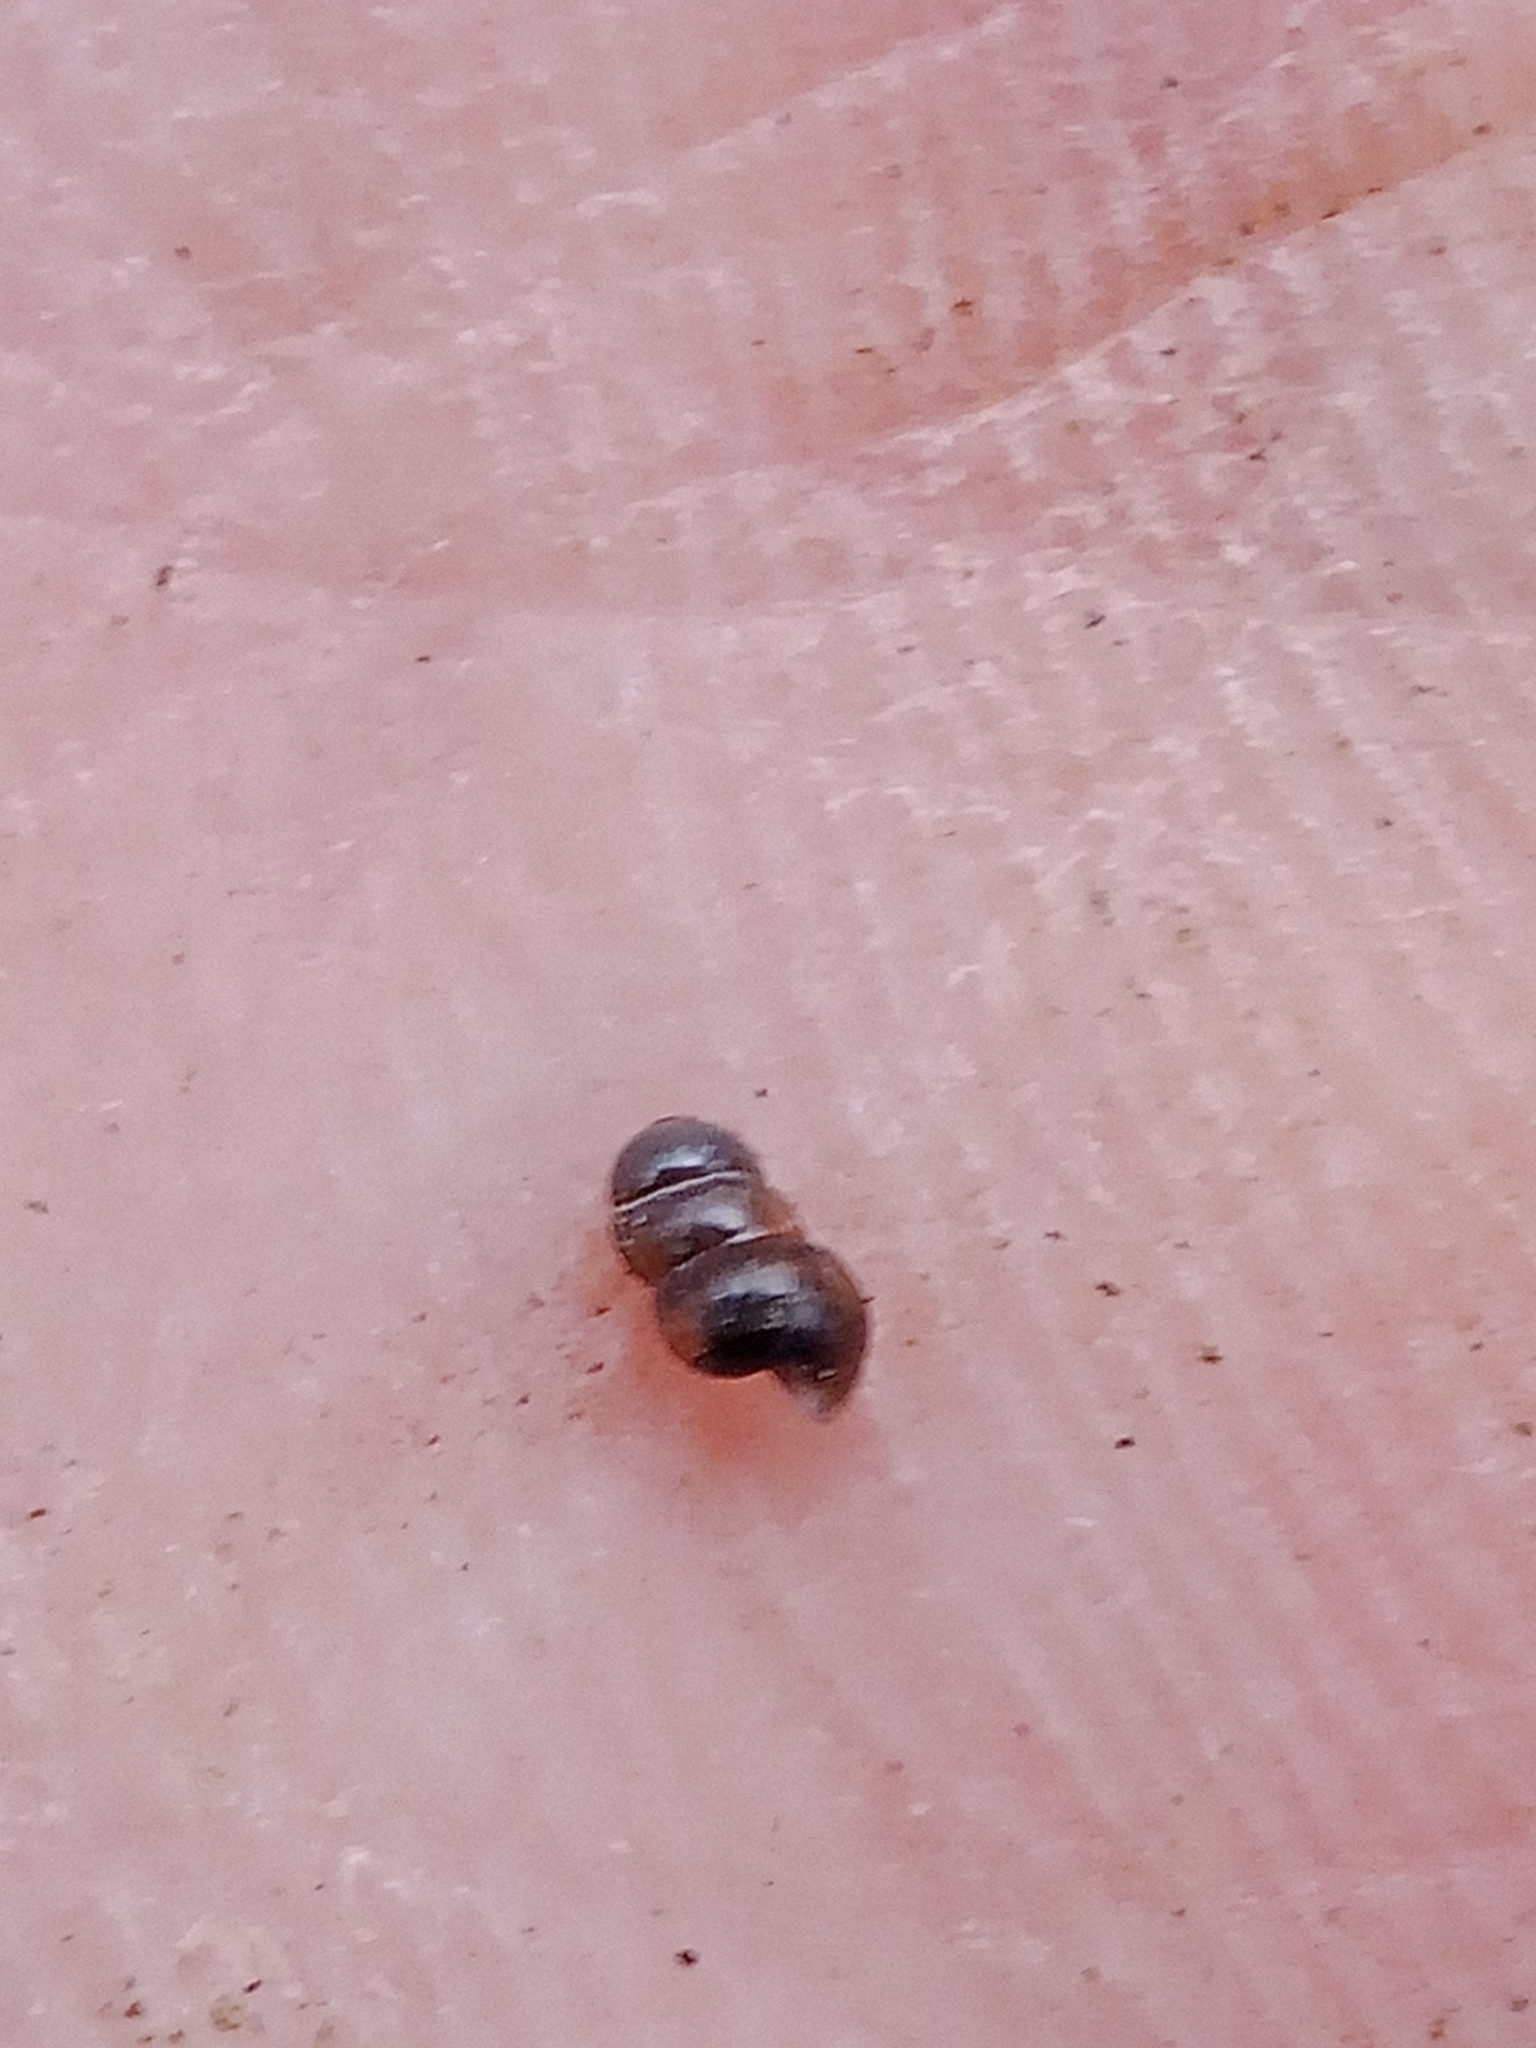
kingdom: Animalia
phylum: Mollusca
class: Gastropoda
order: Stylommatophora
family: Clausiliidae
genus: Cochlodina
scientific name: Cochlodina laminata
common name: Plaited door snail
